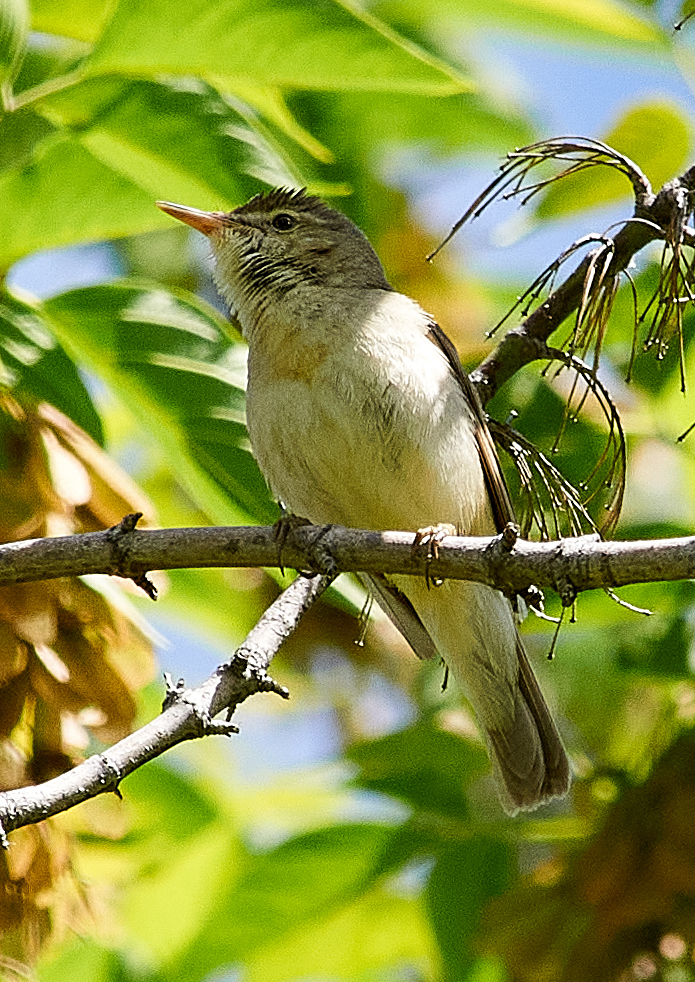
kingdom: Animalia
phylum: Chordata
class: Aves
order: Passeriformes
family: Acrocephalidae
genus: Acrocephalus
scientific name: Acrocephalus dumetorum
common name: Blyth's reed warbler
